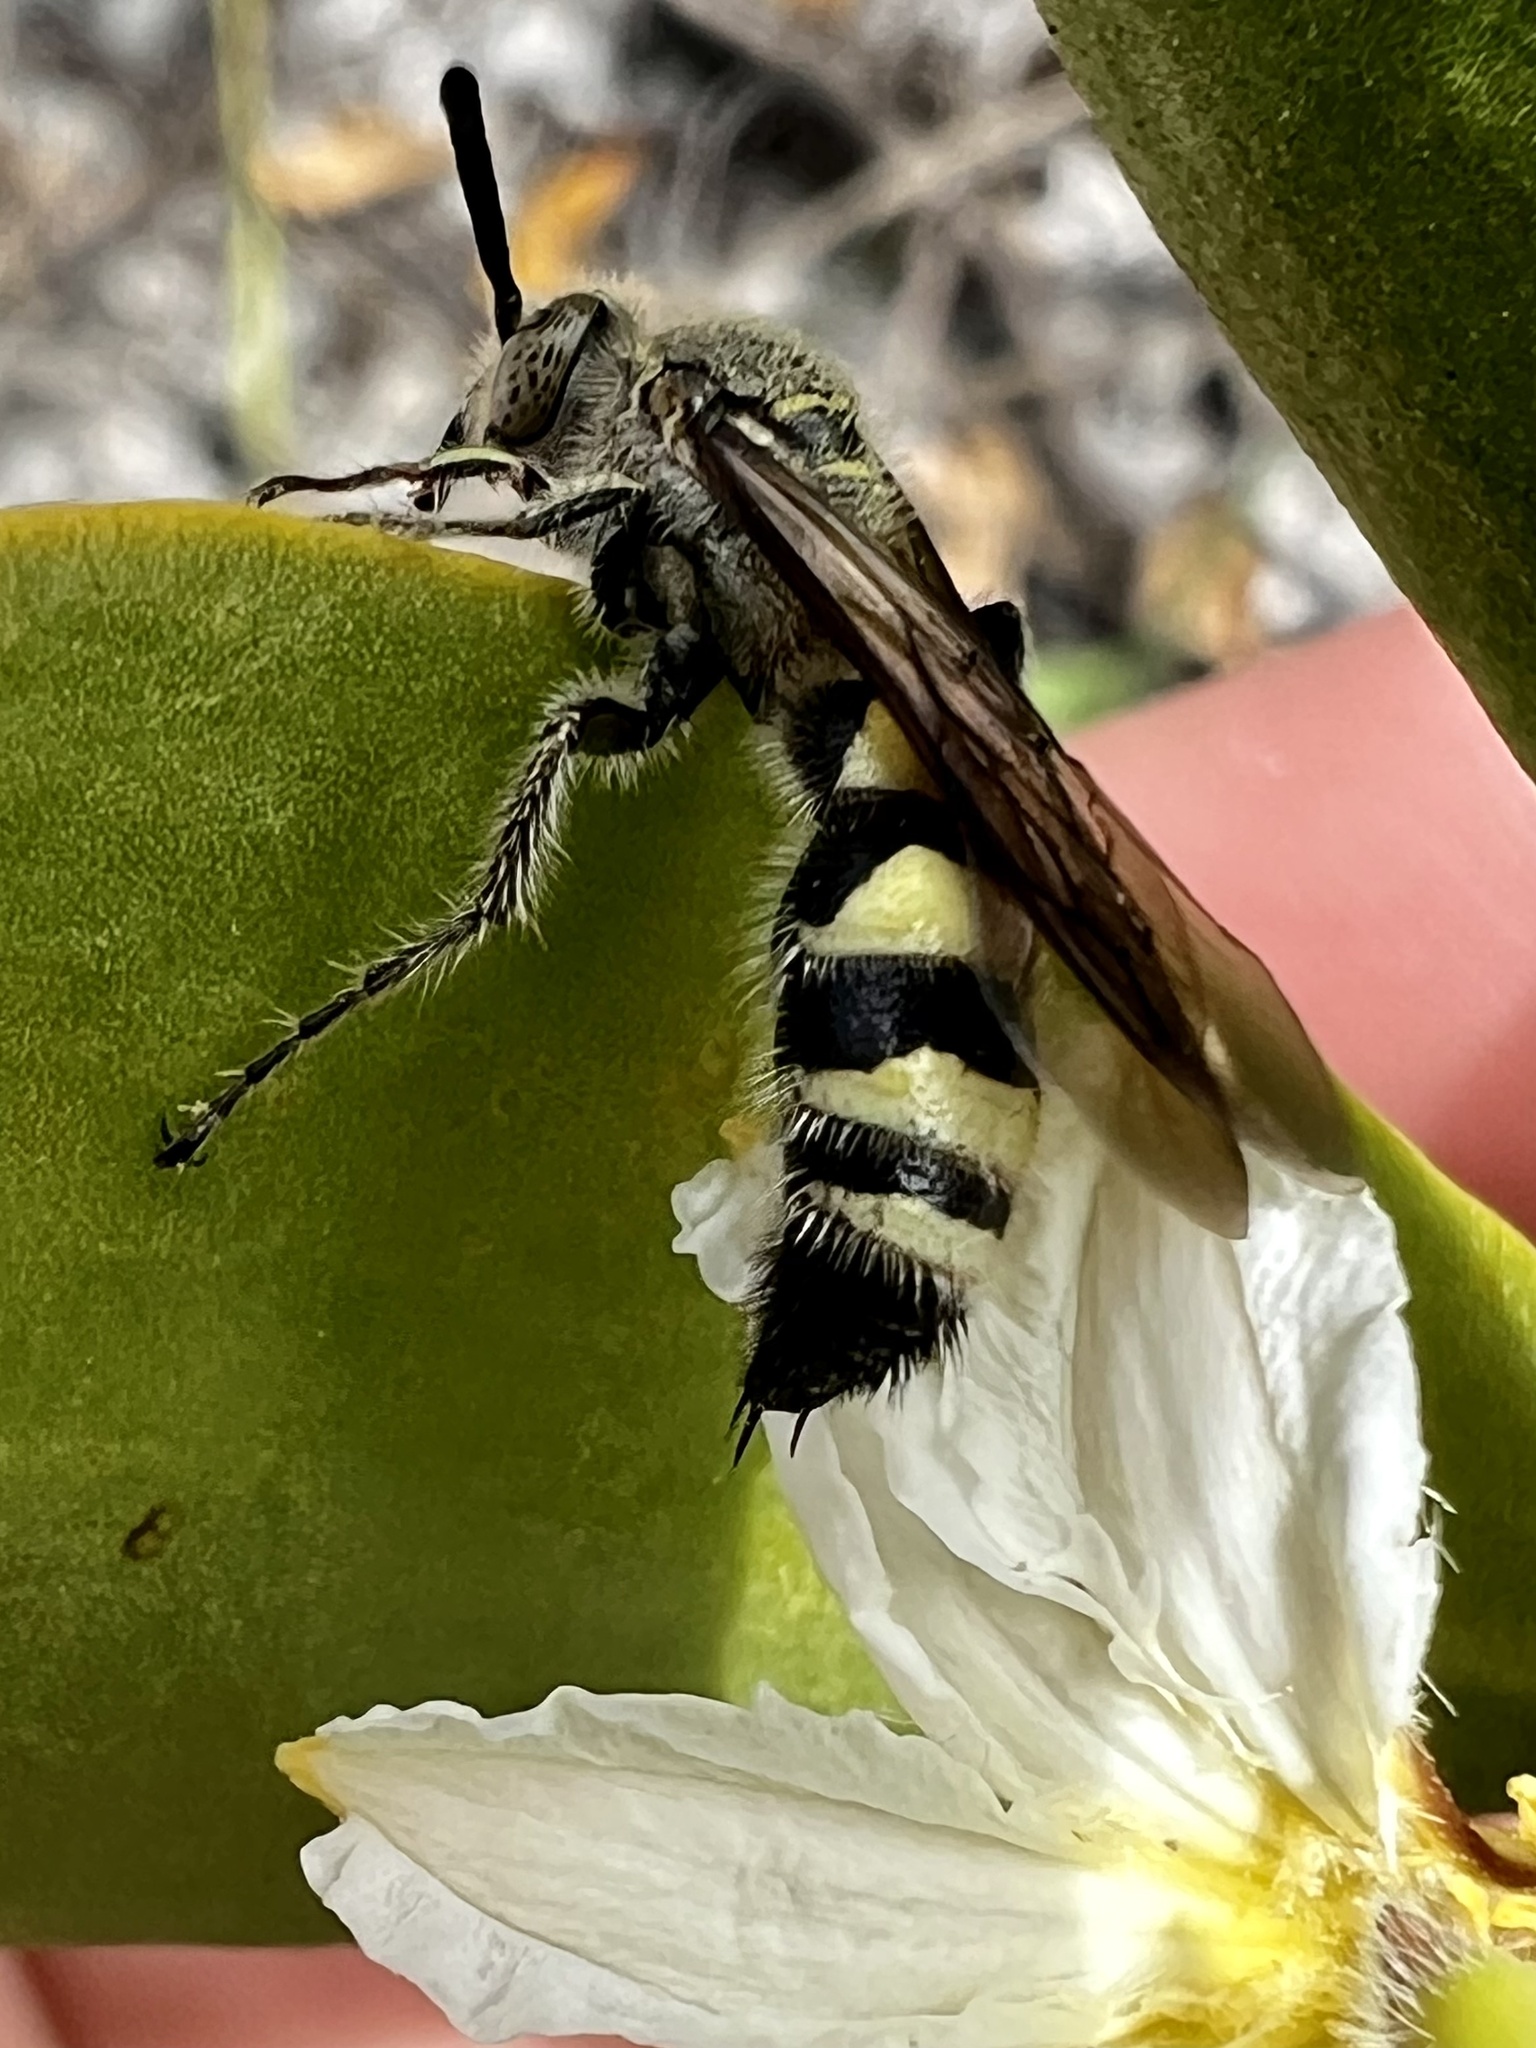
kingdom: Animalia
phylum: Arthropoda
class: Insecta
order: Hymenoptera
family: Scoliidae
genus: Dielis
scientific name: Dielis dorsata
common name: Scoliid wasp
